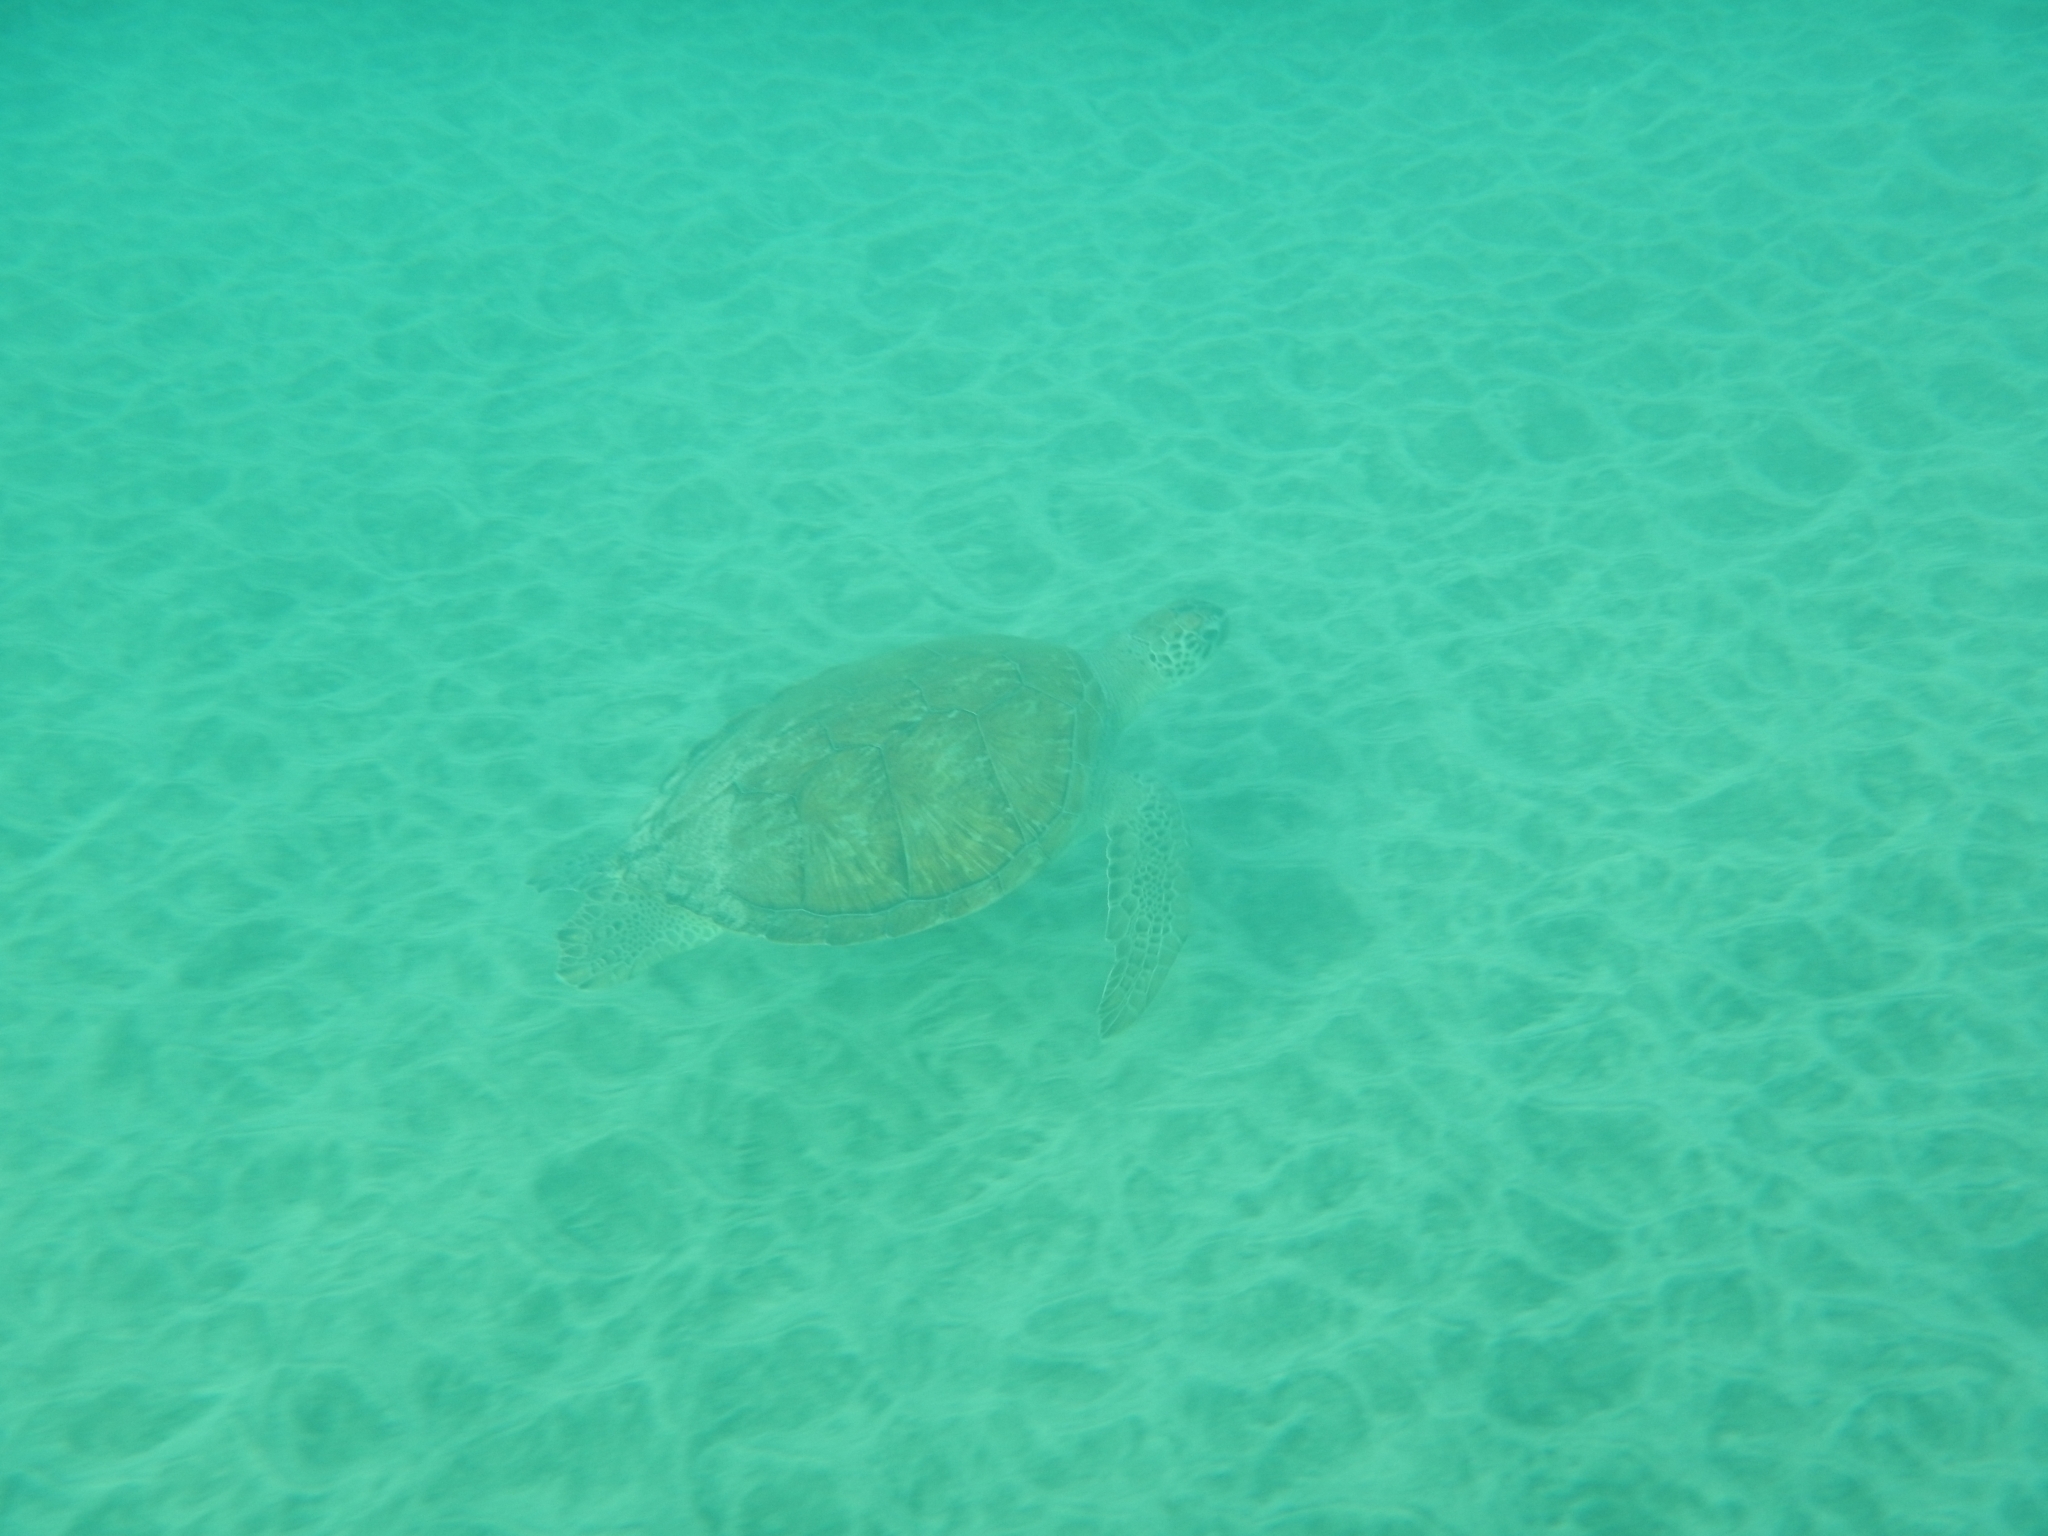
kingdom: Animalia
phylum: Chordata
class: Testudines
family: Cheloniidae
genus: Chelonia
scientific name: Chelonia mydas
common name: Green turtle
